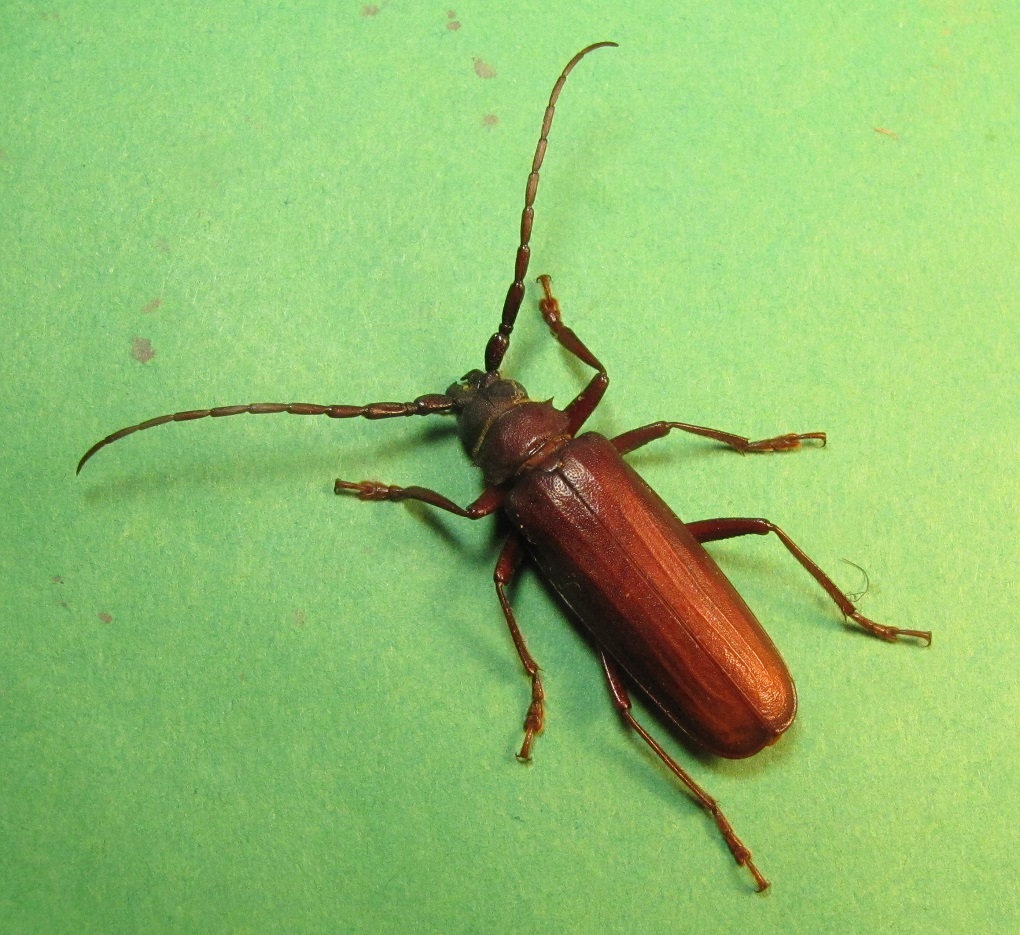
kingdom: Animalia
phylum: Arthropoda
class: Insecta
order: Coleoptera
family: Cerambycidae
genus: Orthosoma
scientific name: Orthosoma brunneum
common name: Brown prionid beetle
